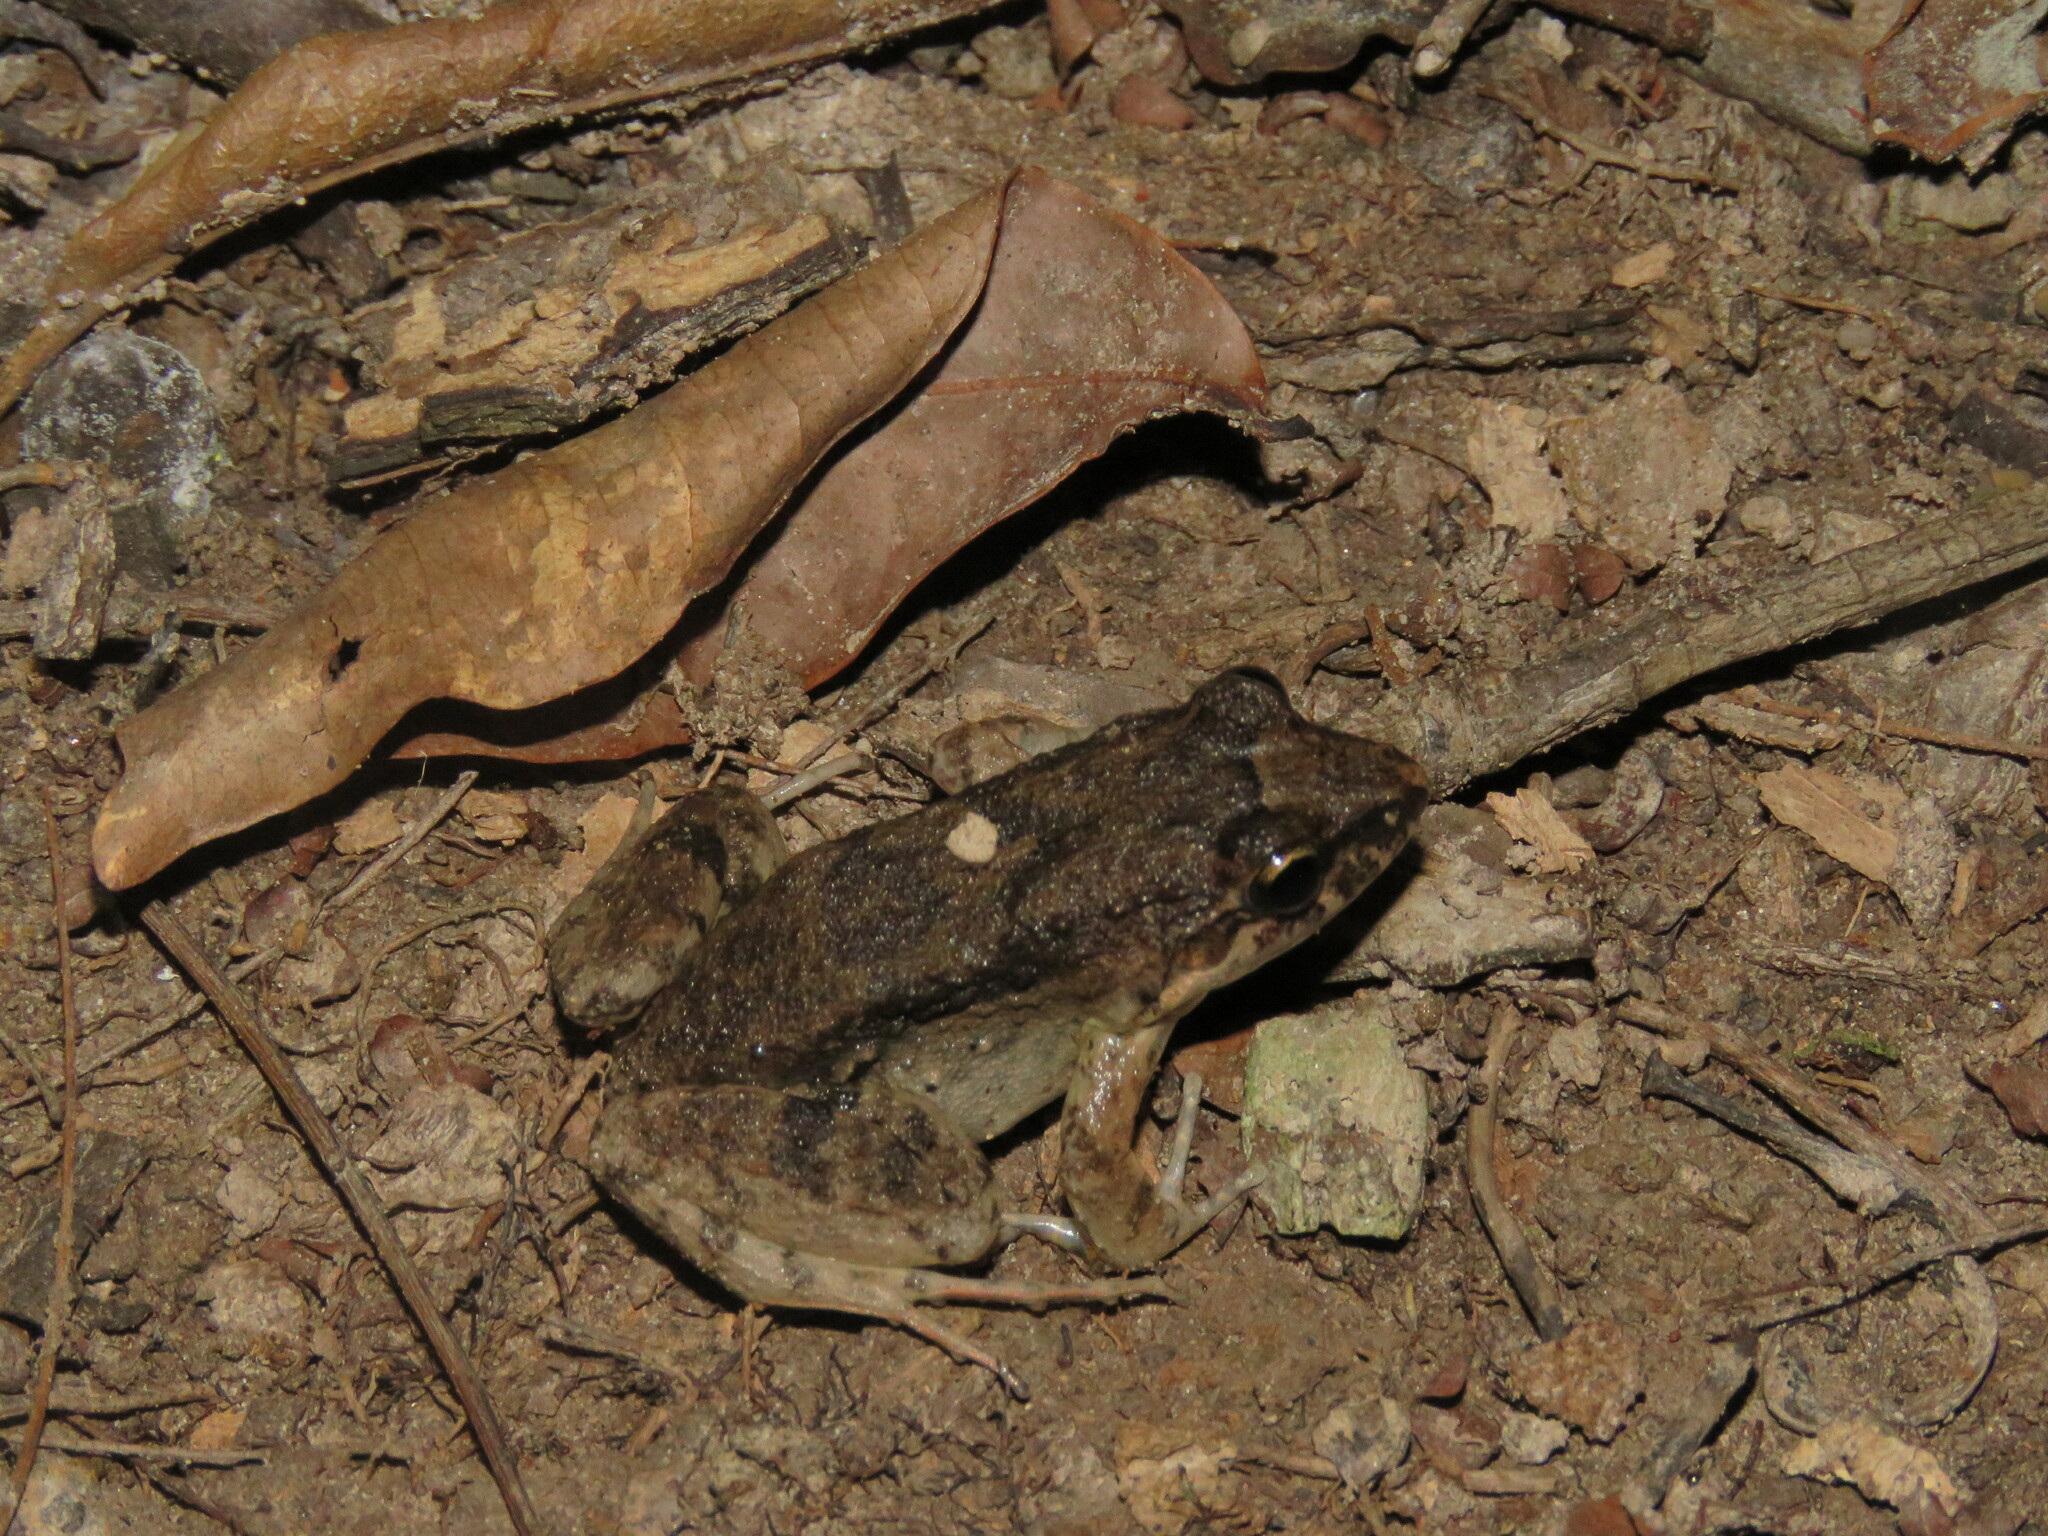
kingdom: Animalia
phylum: Chordata
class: Amphibia
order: Anura
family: Leptodactylidae
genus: Leptodactylus
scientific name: Leptodactylus petersii
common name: Peters' thin-toed frog
